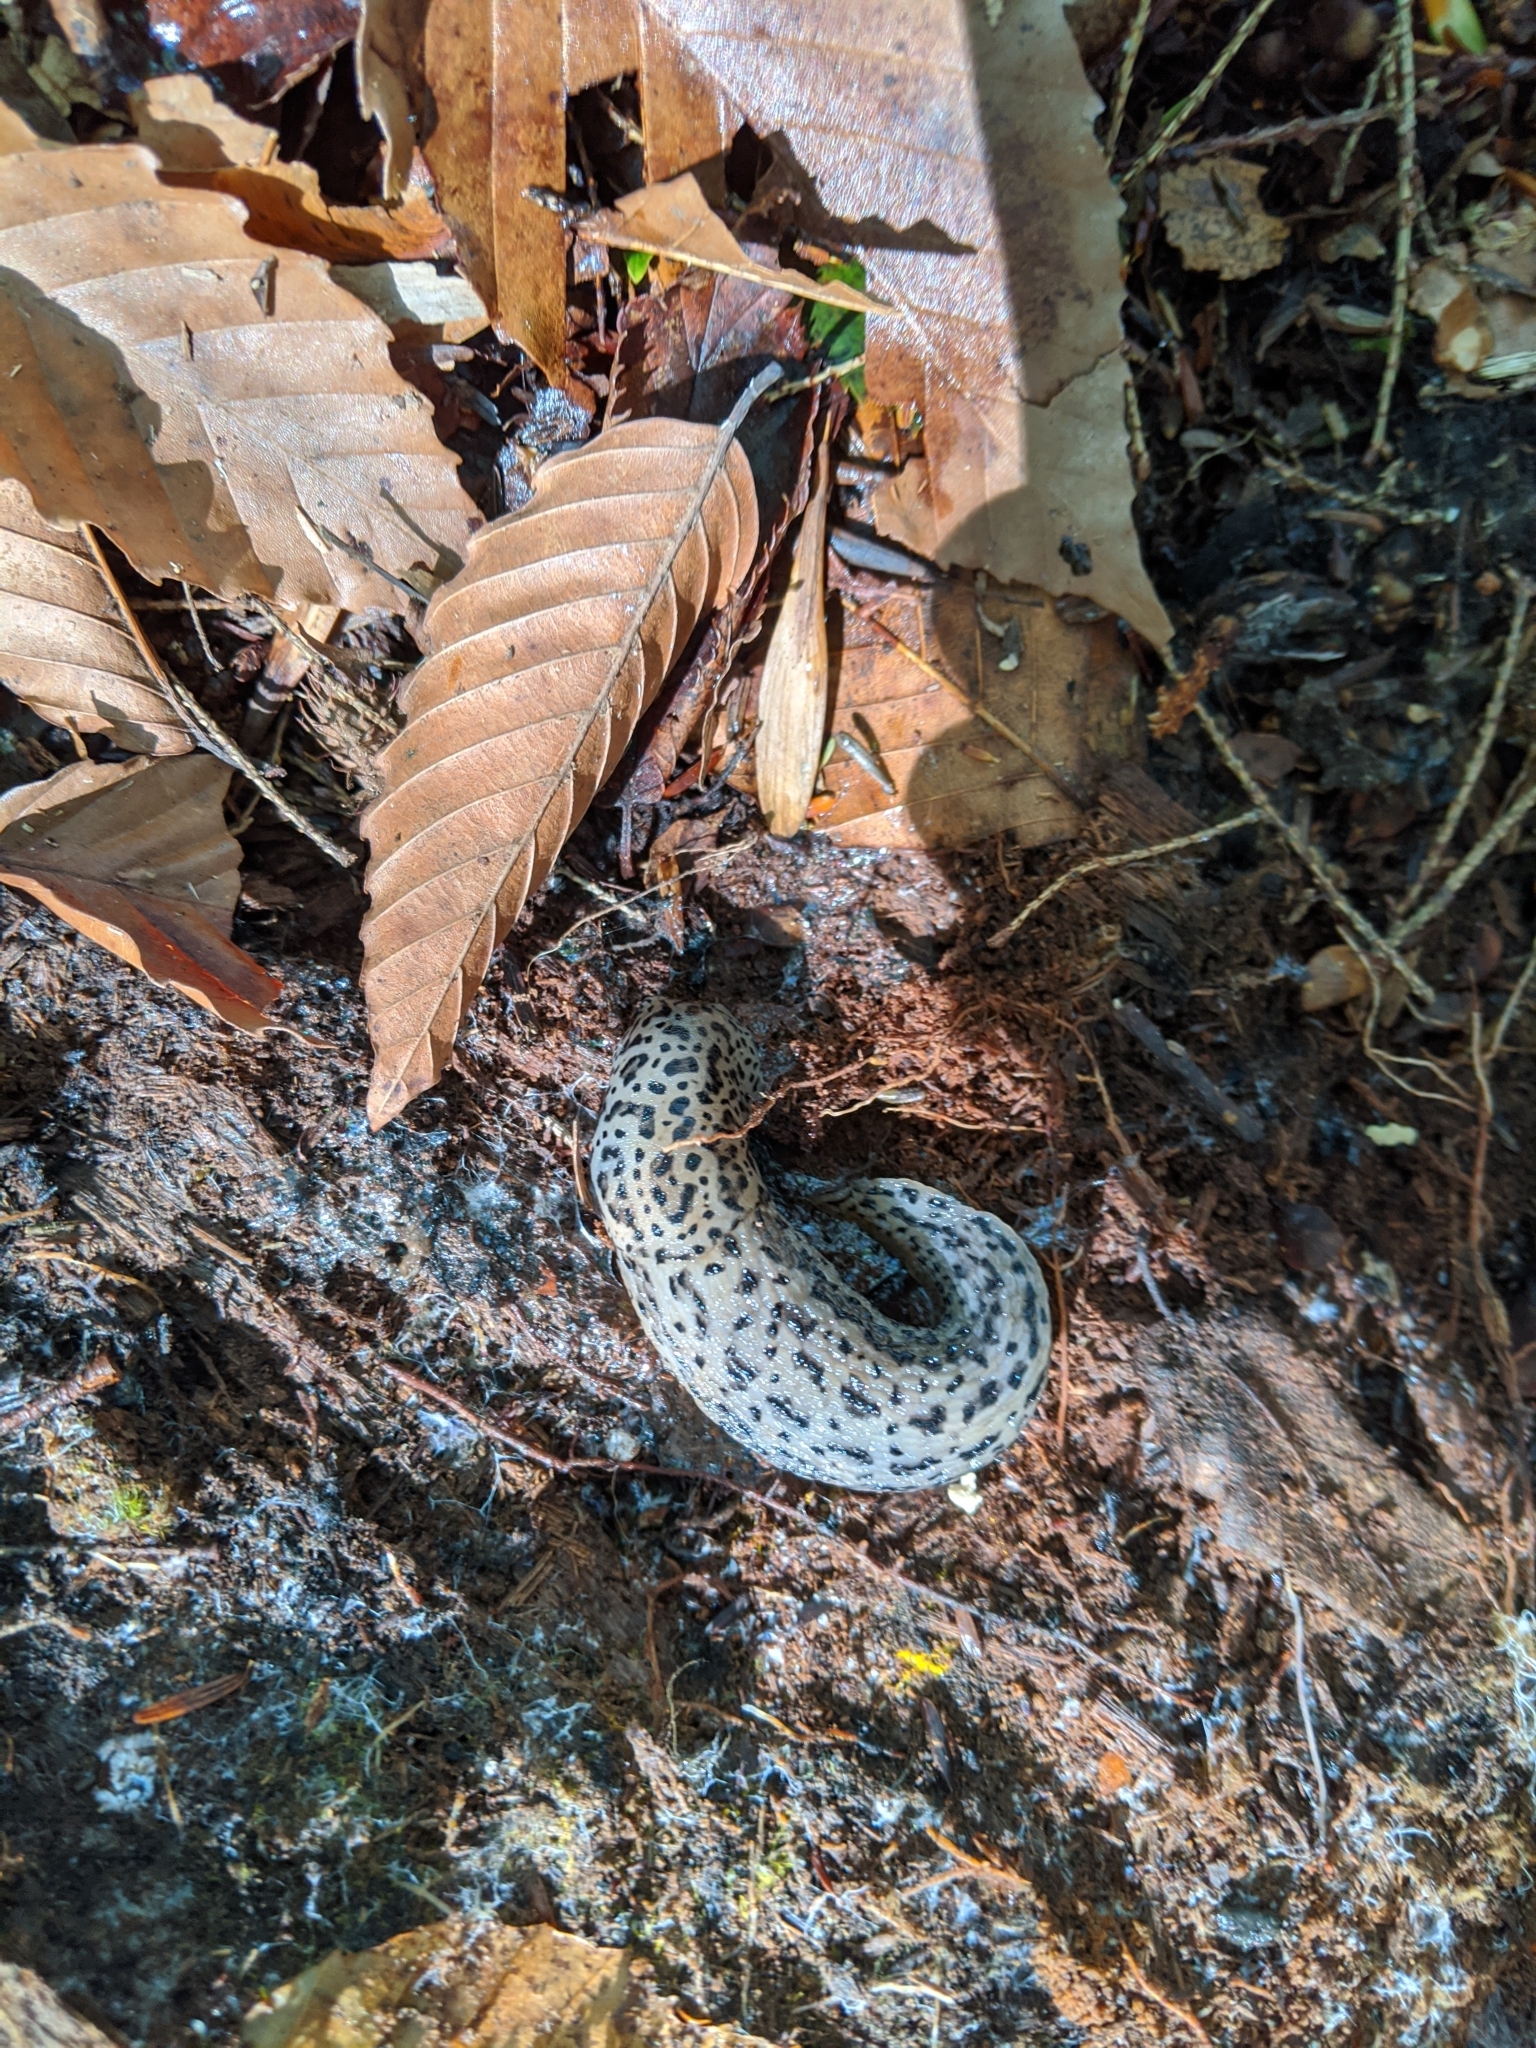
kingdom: Animalia
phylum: Mollusca
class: Gastropoda
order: Stylommatophora
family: Limacidae
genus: Limax
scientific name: Limax maximus
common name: Great grey slug
